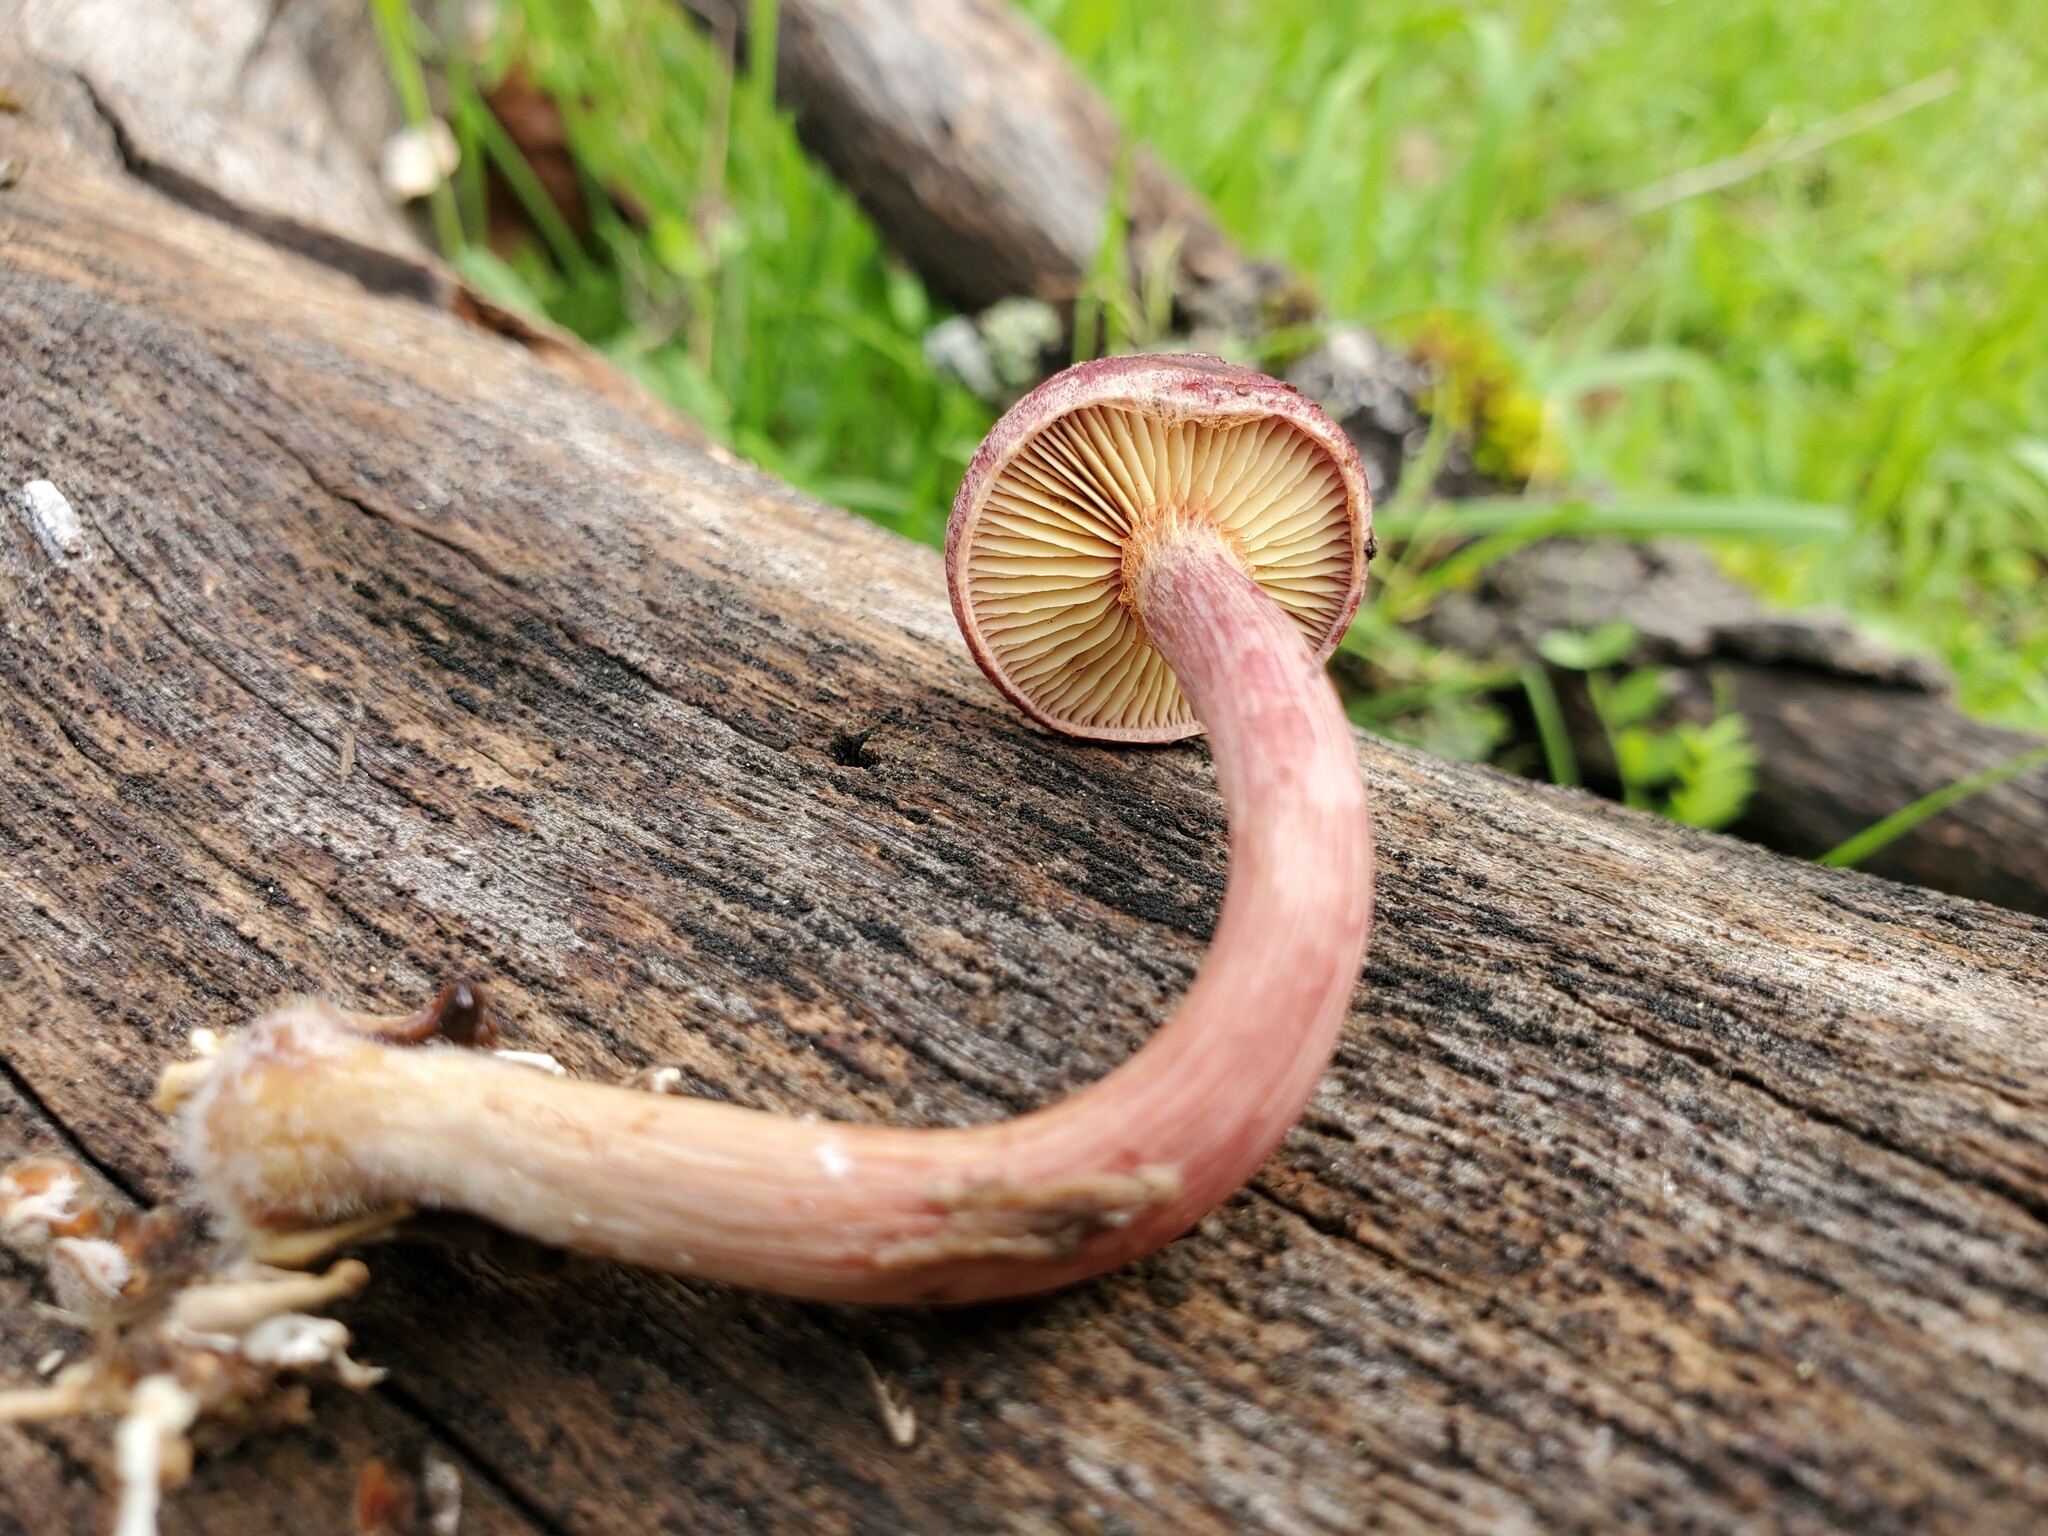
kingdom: Fungi
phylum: Basidiomycota
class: Agaricomycetes
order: Agaricales
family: Hymenogastraceae
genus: Gymnopilus
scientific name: Gymnopilus luteofolius
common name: Yellow-gilled gymnopilus
